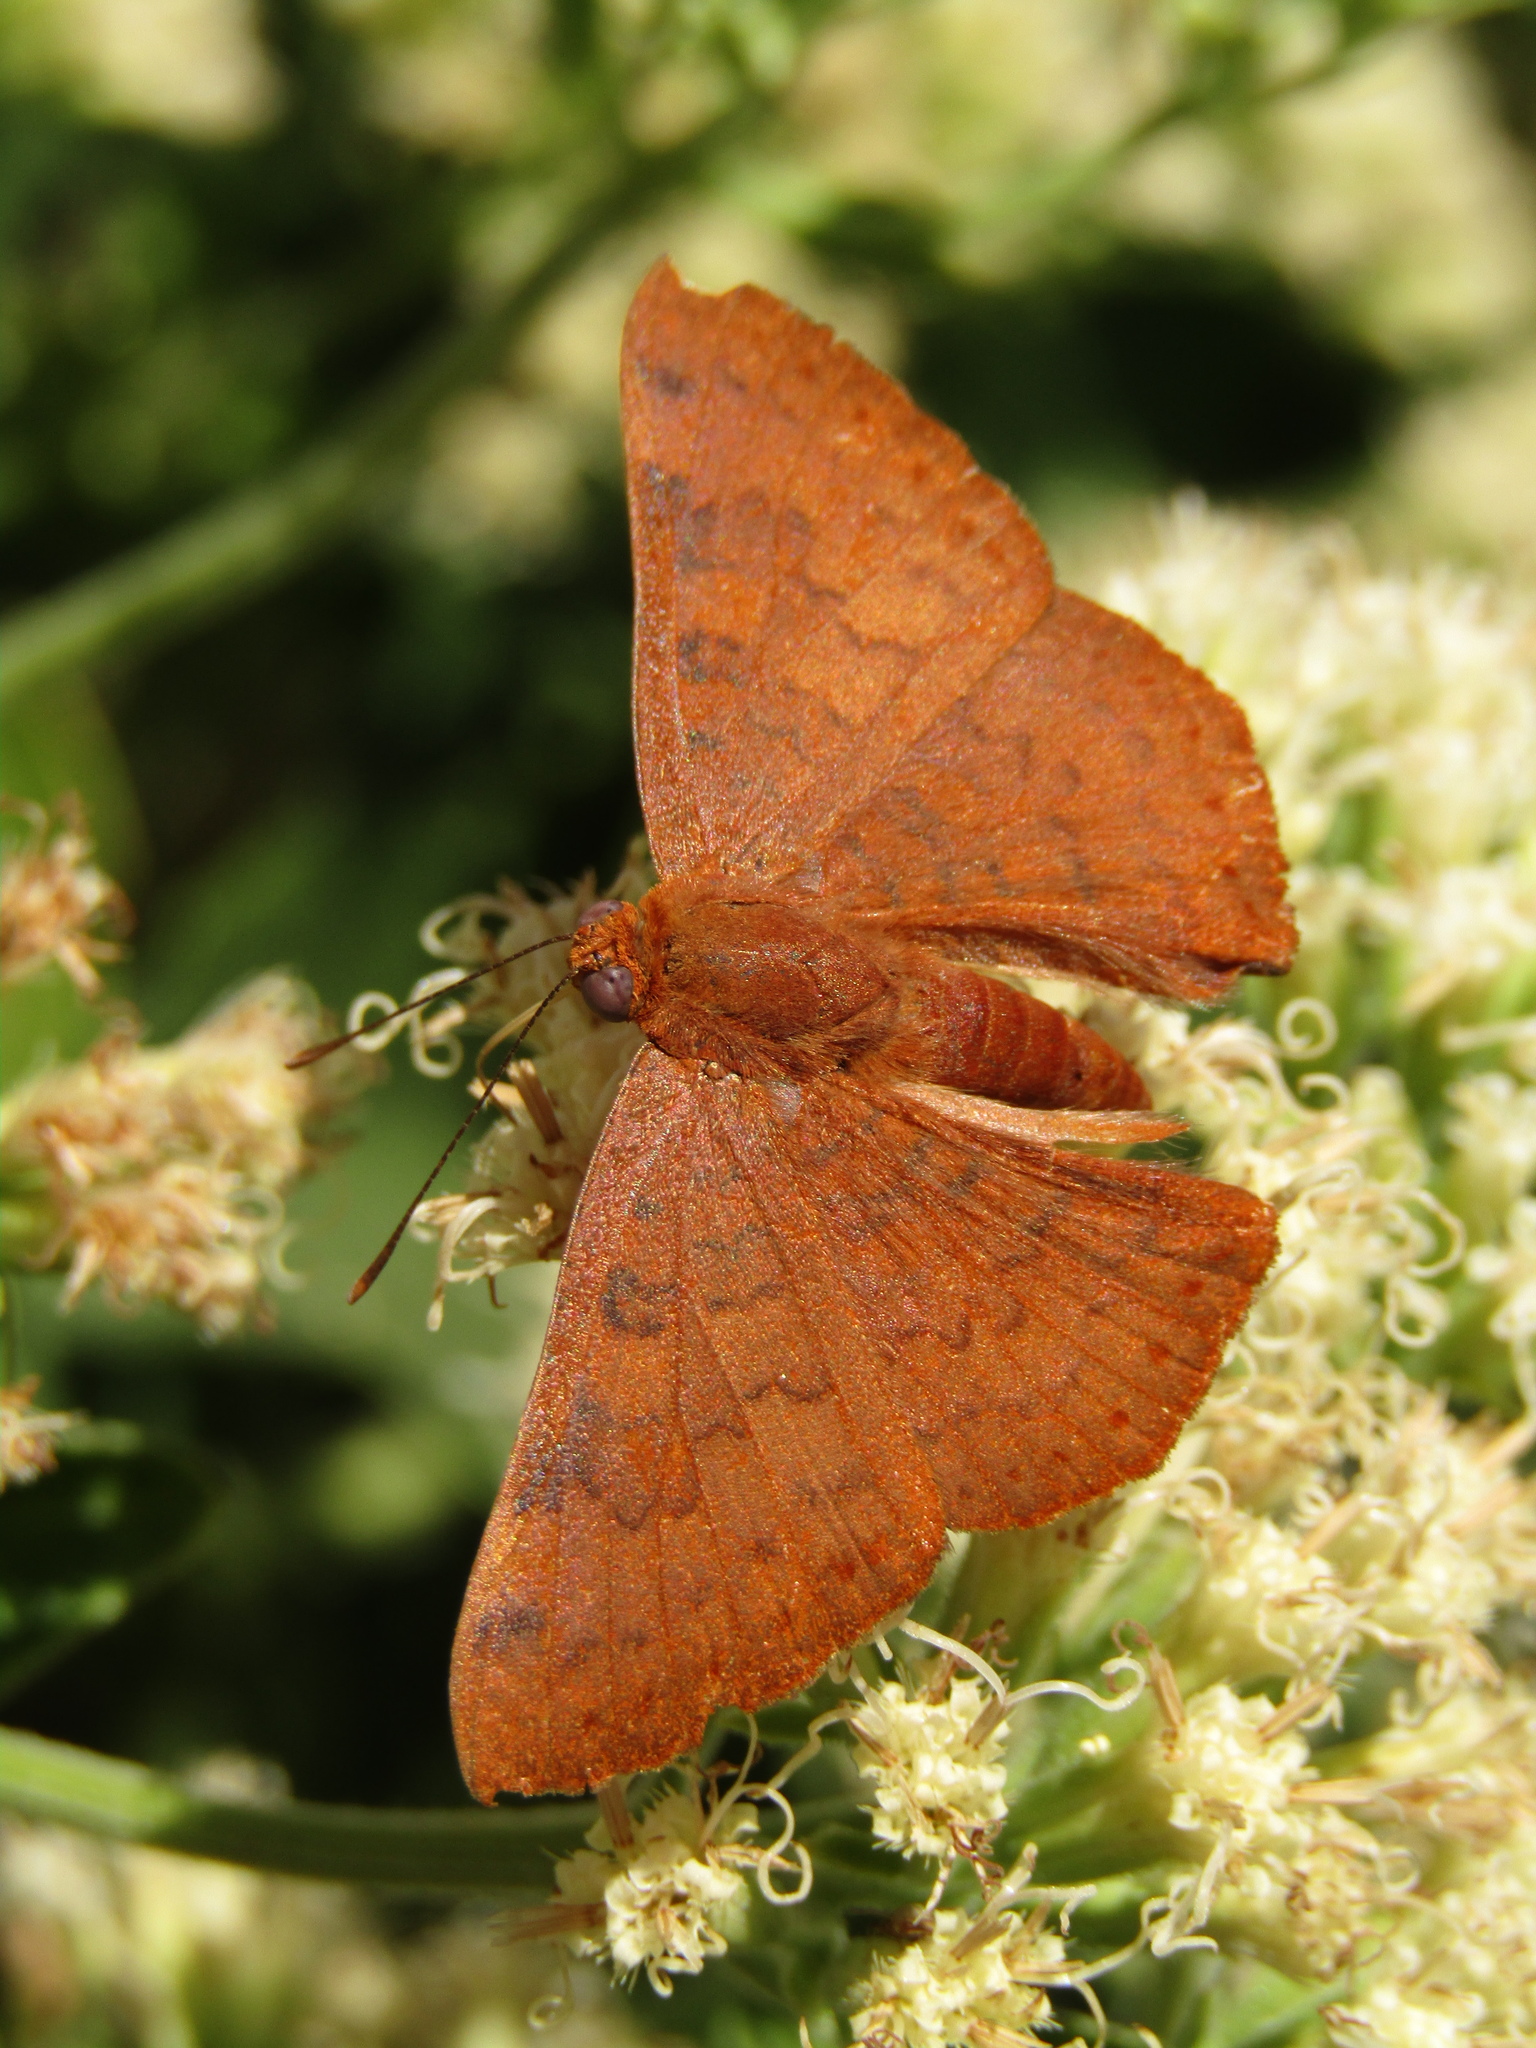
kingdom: Animalia
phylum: Arthropoda
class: Insecta
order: Lepidoptera
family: Lycaenidae
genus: Emesis
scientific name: Emesis russula
